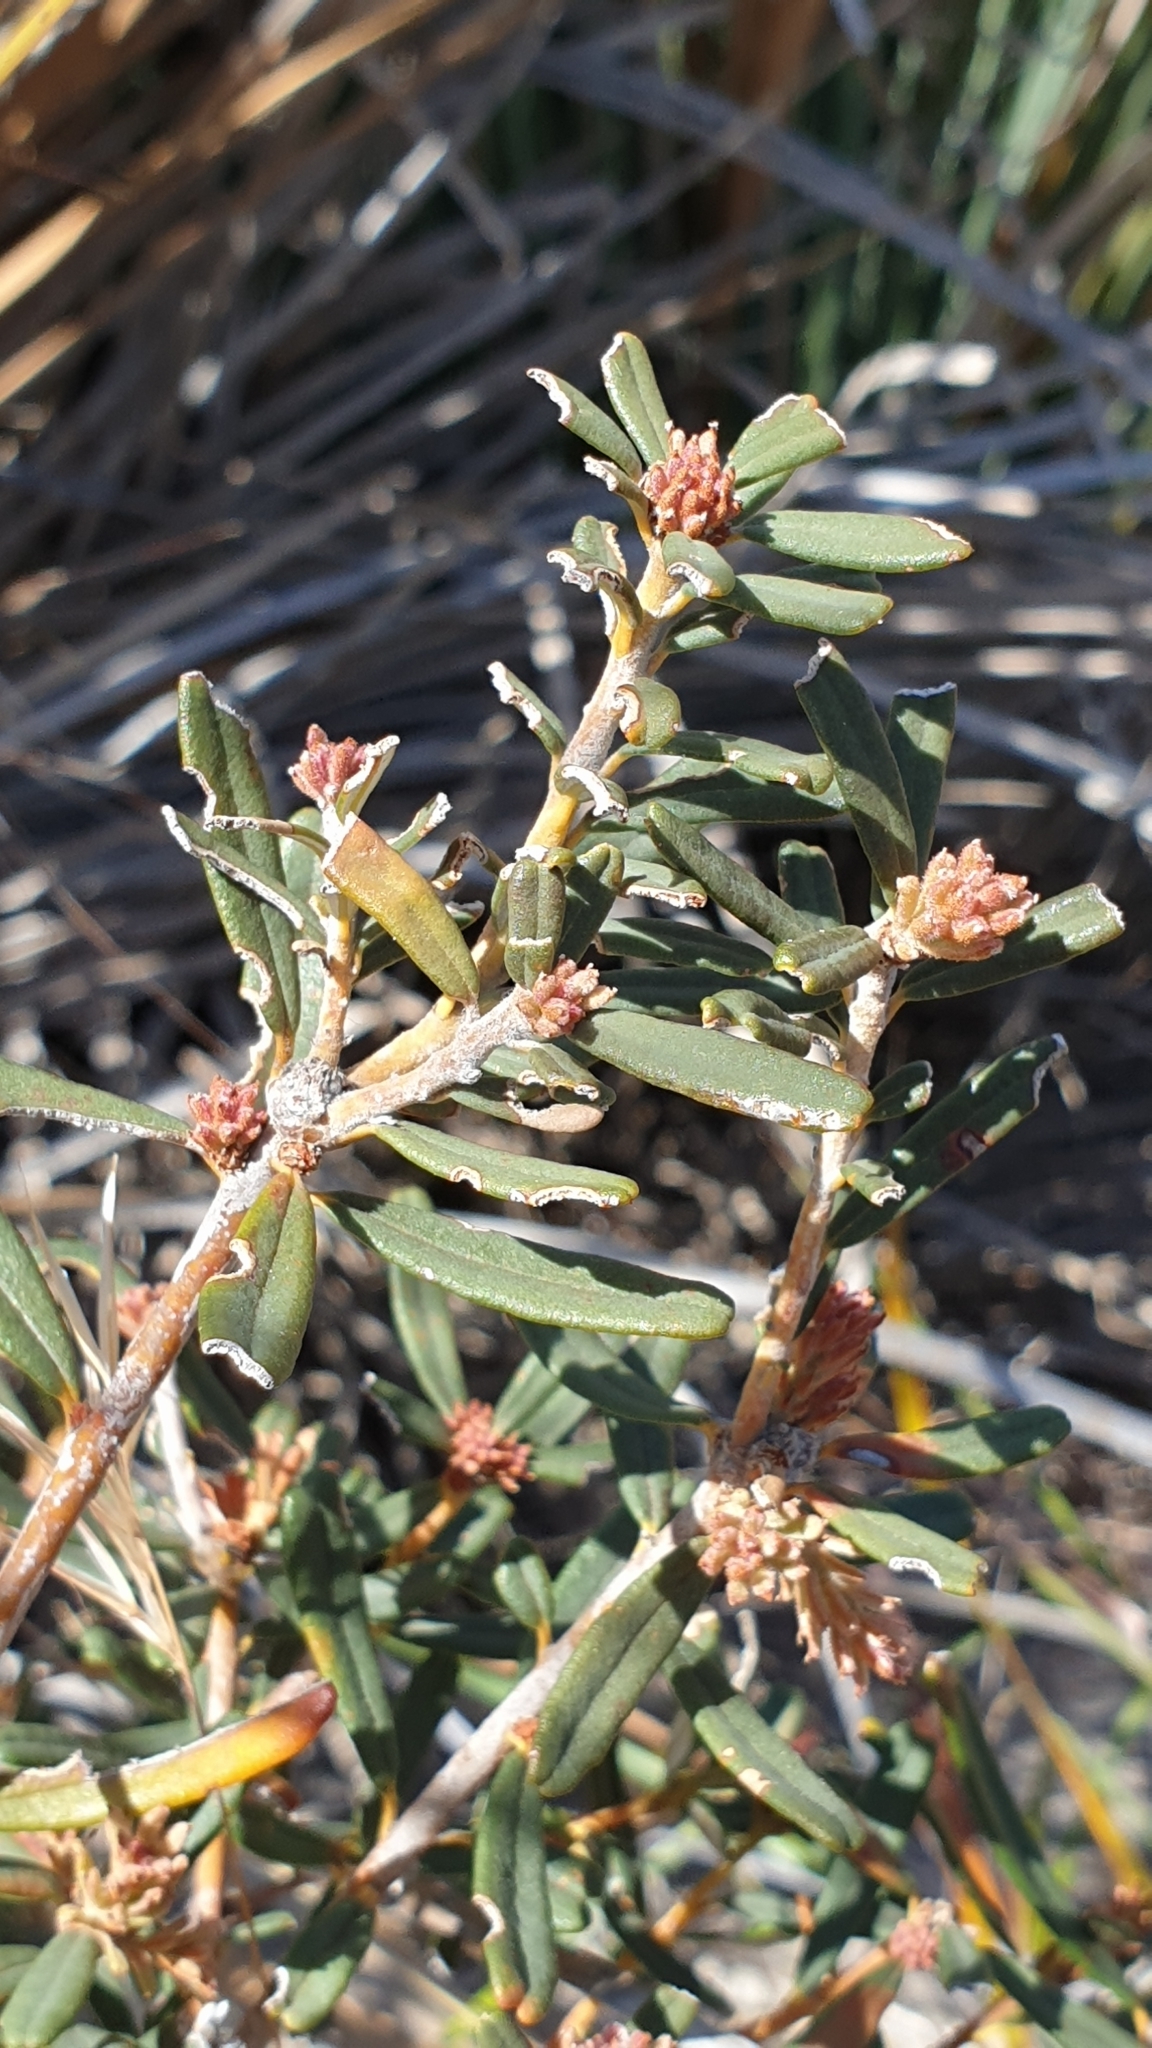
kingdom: Plantae
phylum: Tracheophyta
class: Magnoliopsida
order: Proteales
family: Proteaceae
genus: Banksia
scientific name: Banksia marginata
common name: Silver banksia
